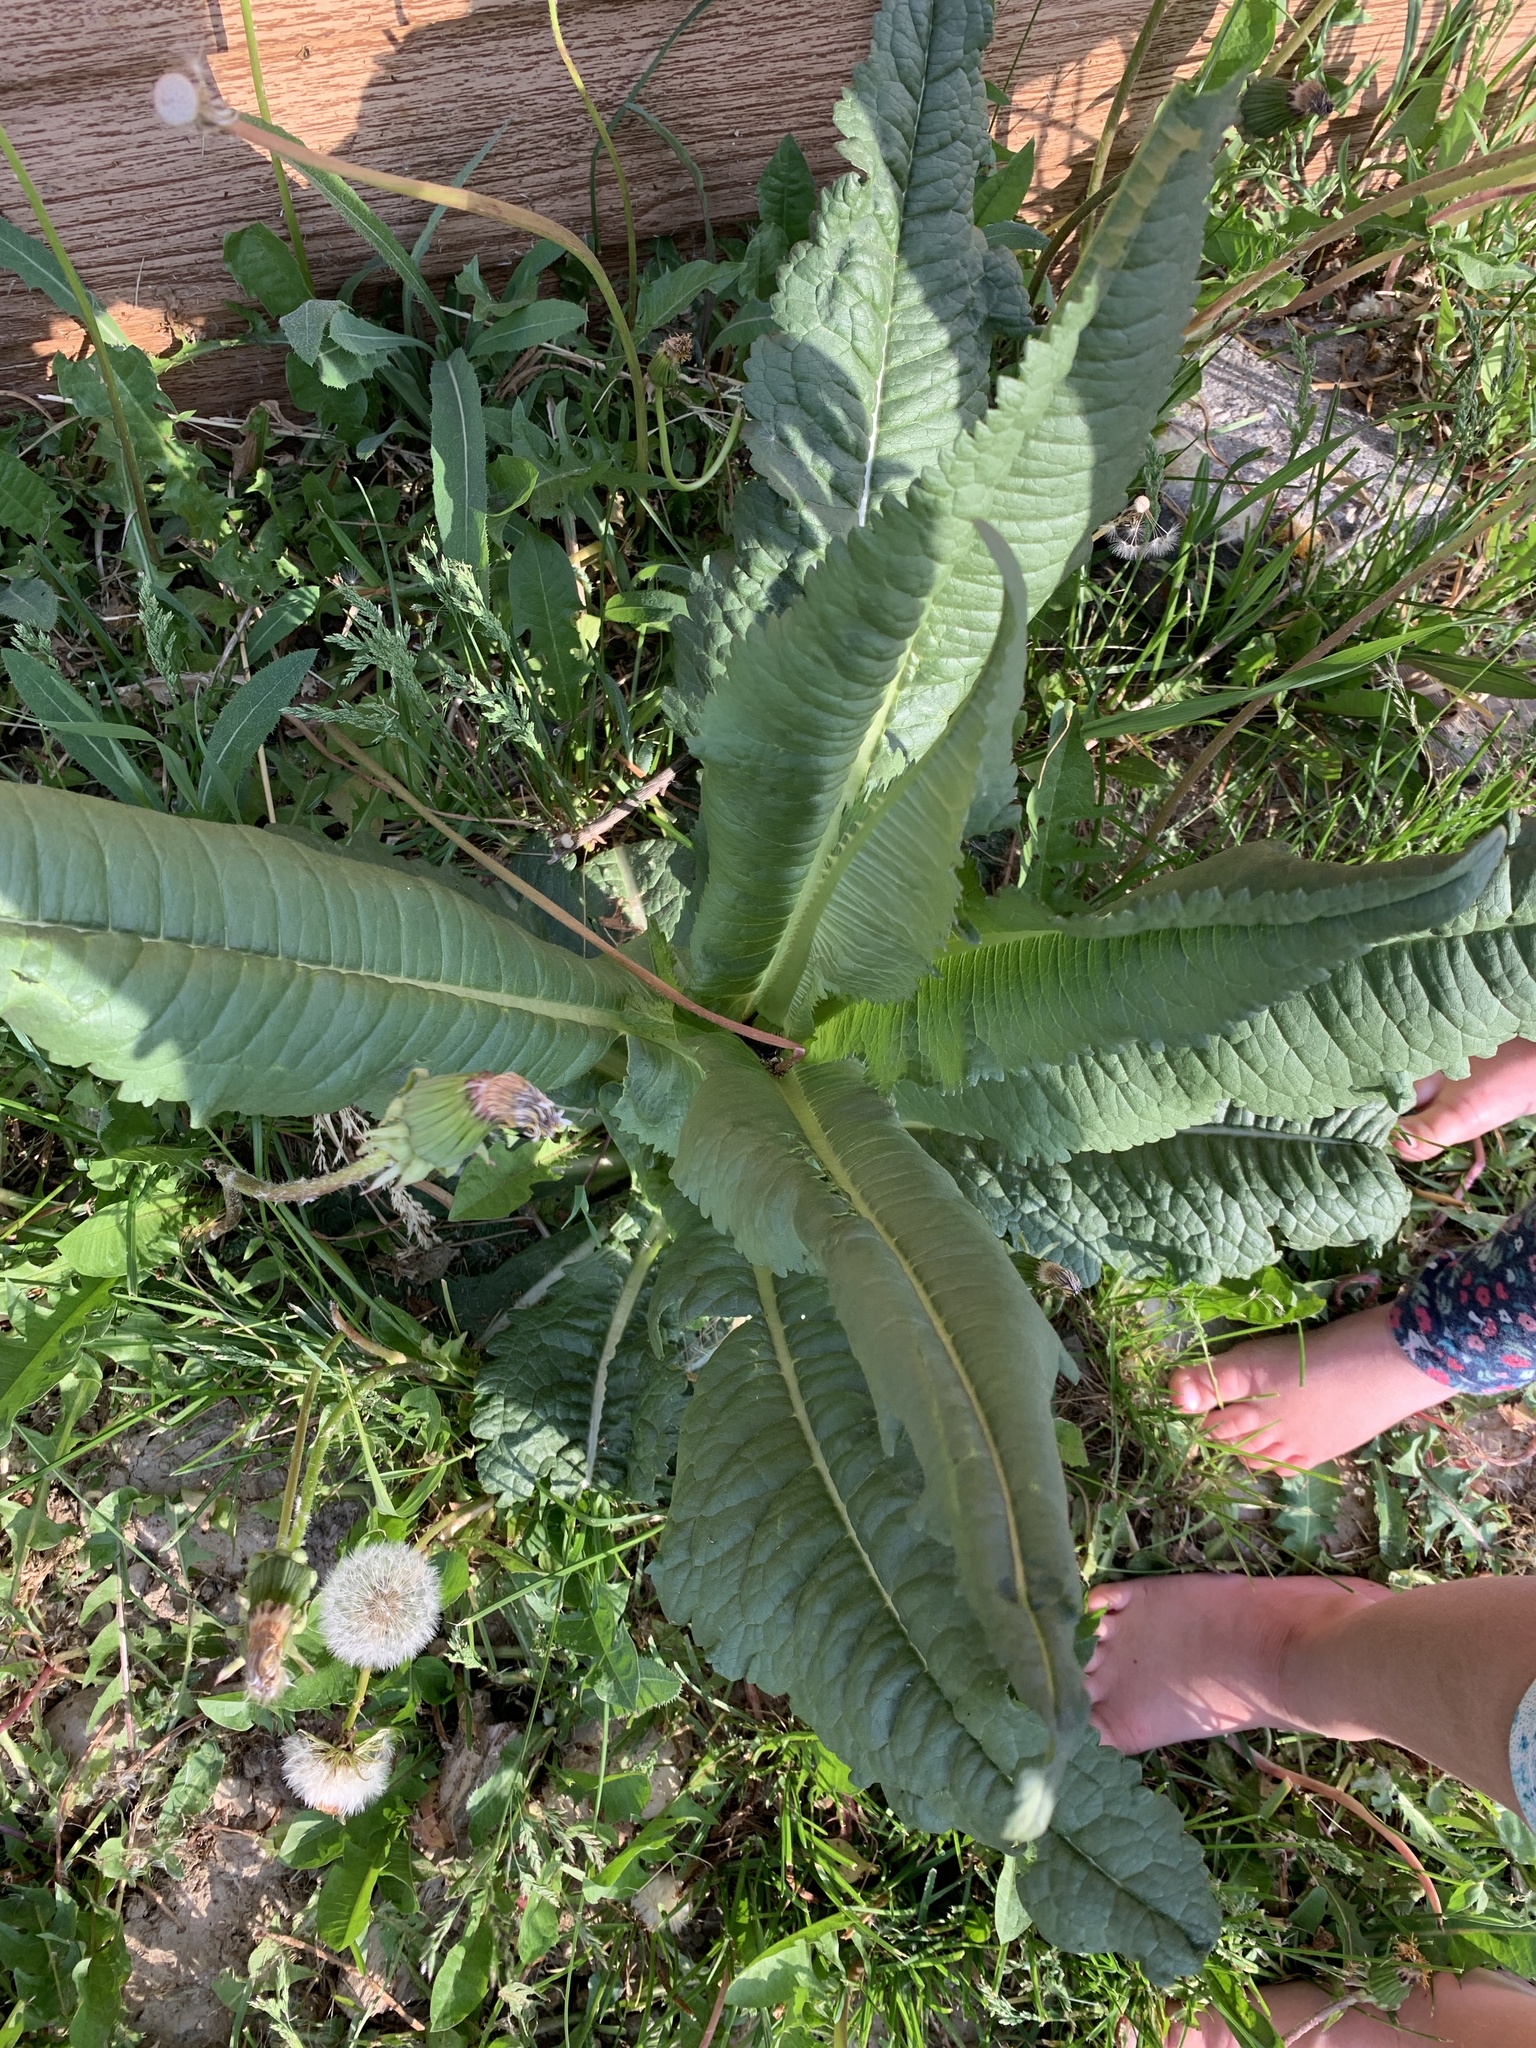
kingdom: Plantae
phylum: Tracheophyta
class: Magnoliopsida
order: Dipsacales
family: Caprifoliaceae
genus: Dipsacus
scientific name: Dipsacus fullonum
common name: Teasel
